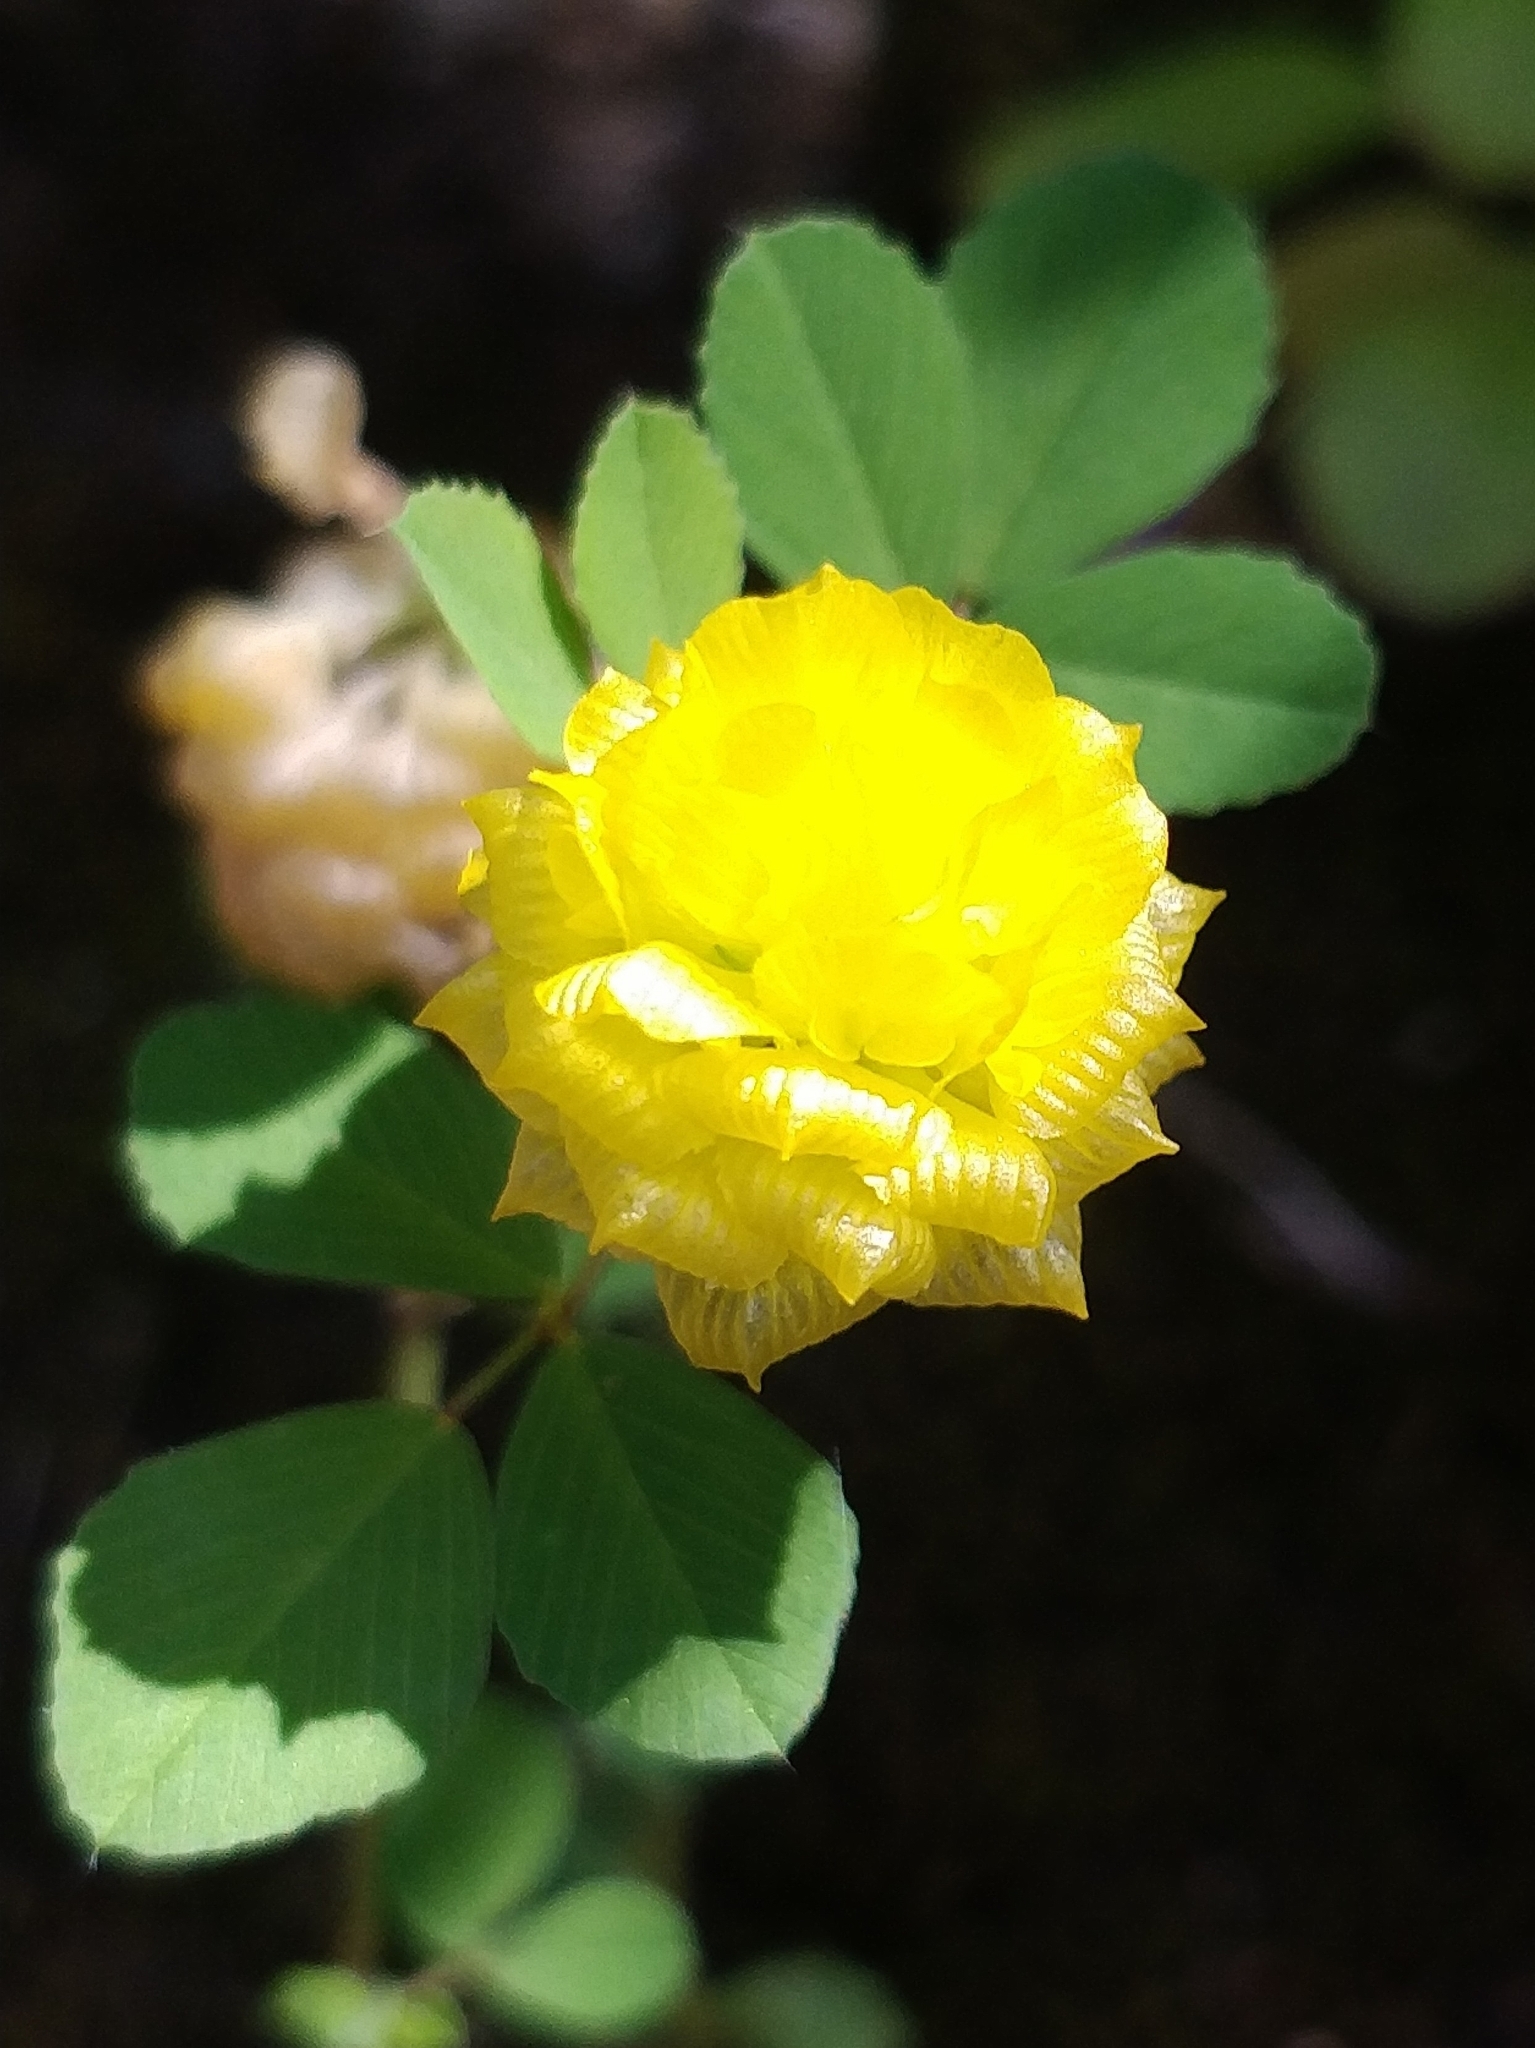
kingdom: Plantae
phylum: Tracheophyta
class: Magnoliopsida
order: Fabales
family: Fabaceae
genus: Trifolium
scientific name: Trifolium campestre
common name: Field clover
